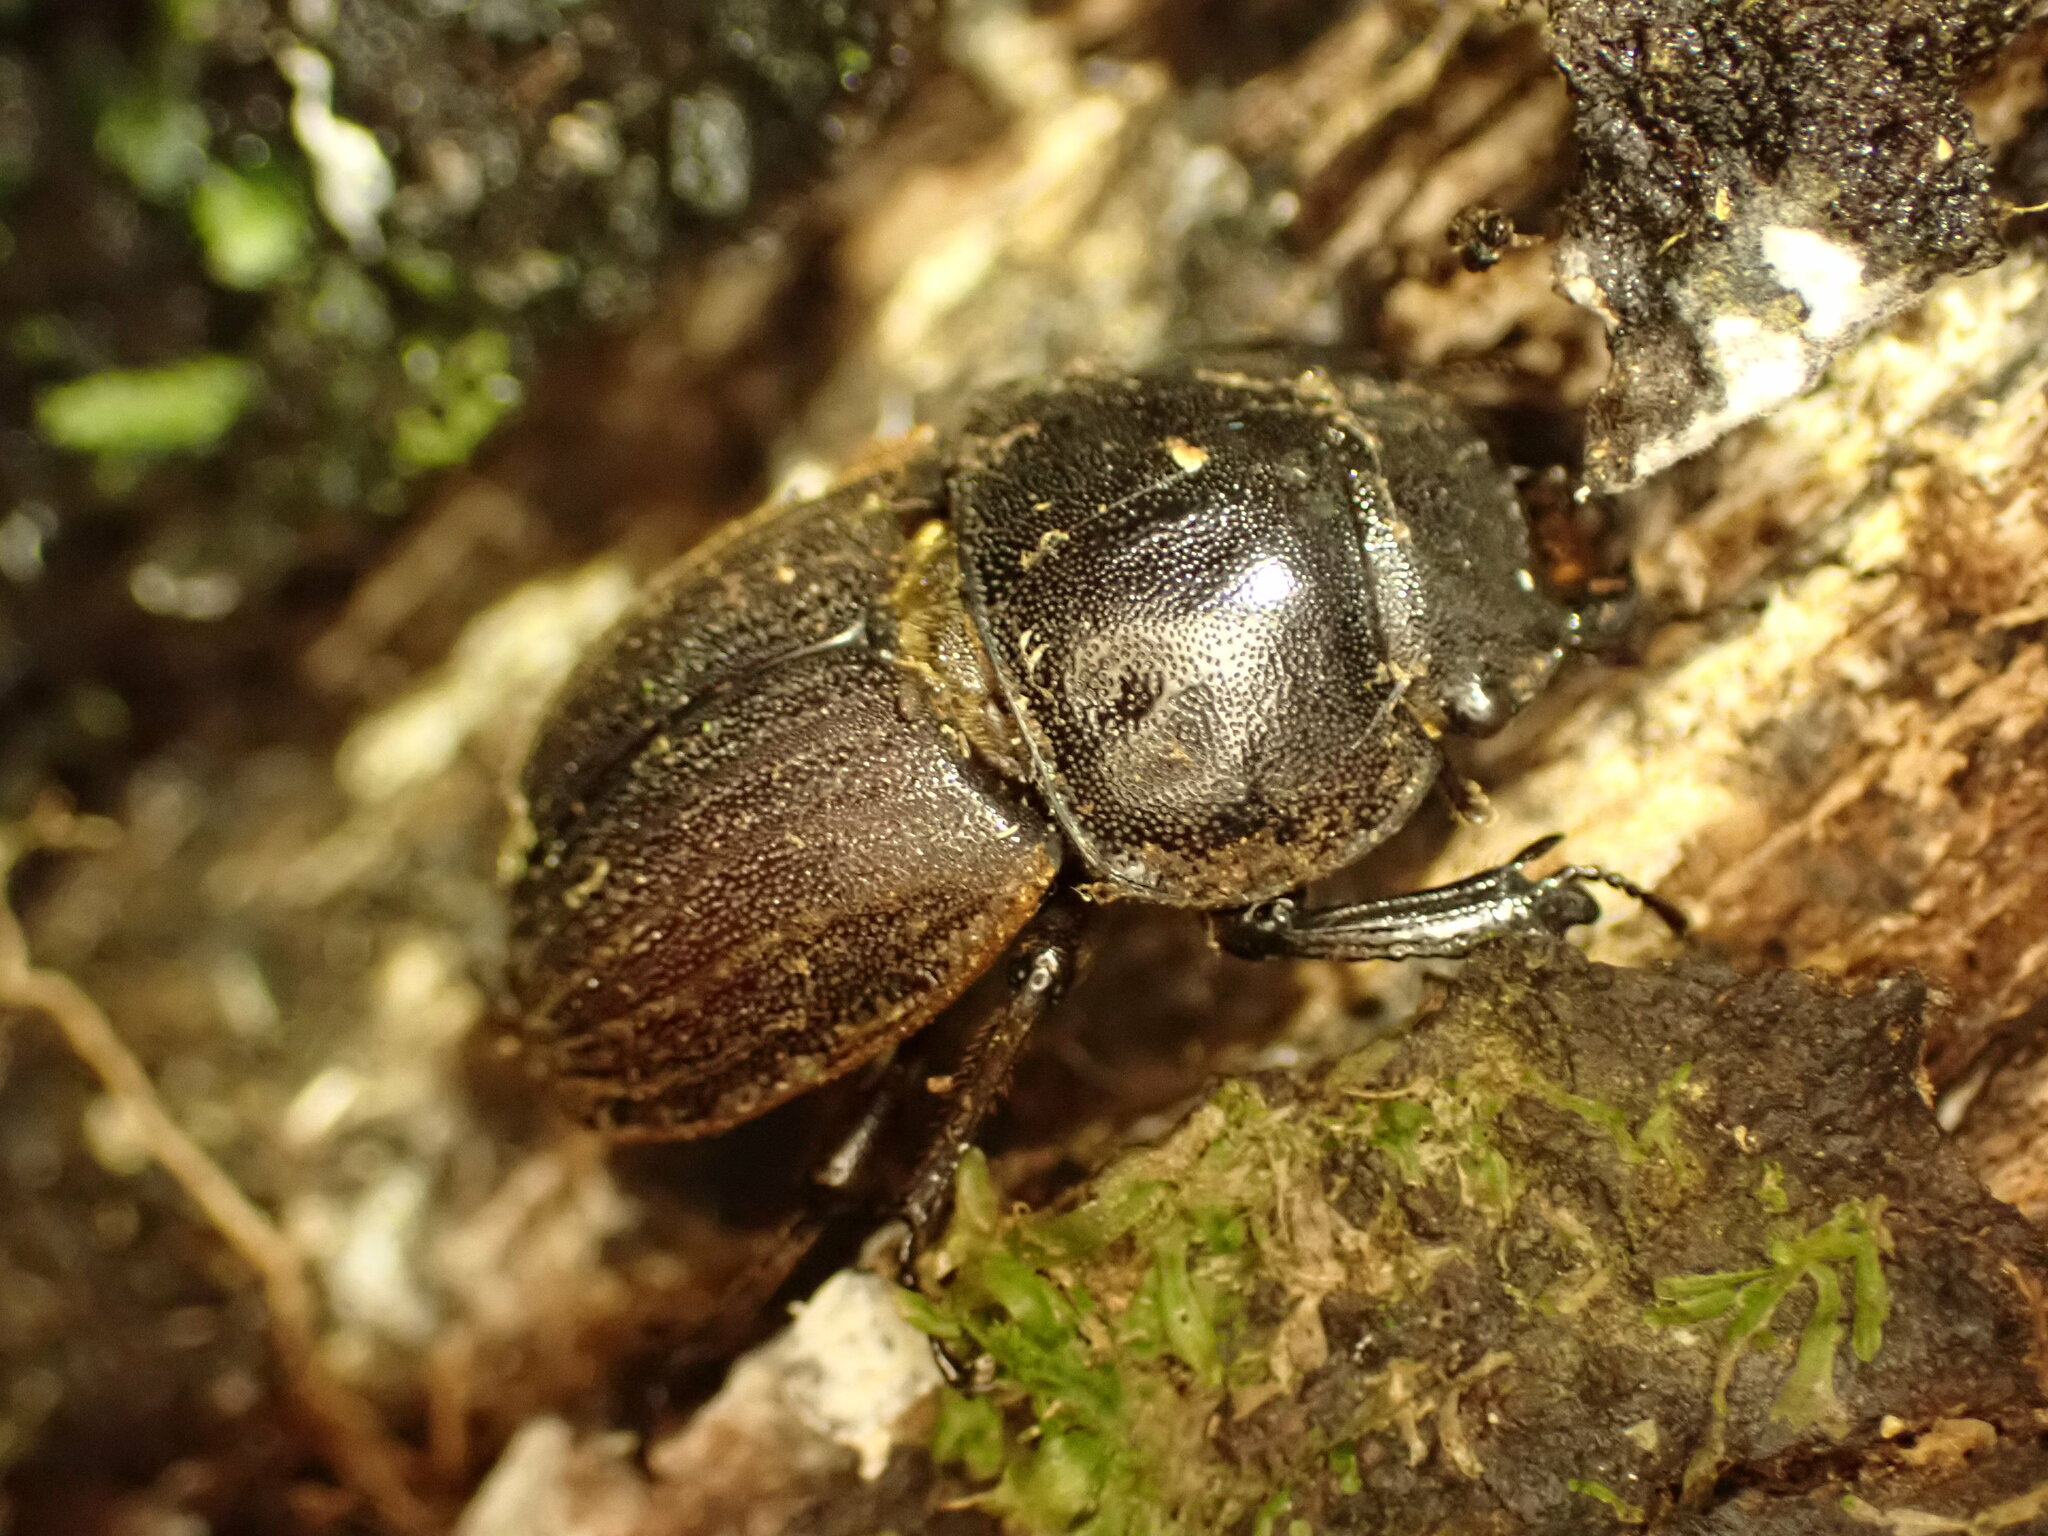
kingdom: Animalia
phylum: Arthropoda
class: Insecta
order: Coleoptera
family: Lucanidae
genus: Geodorcus
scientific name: Geodorcus helmsi
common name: Helm's stag beetle
